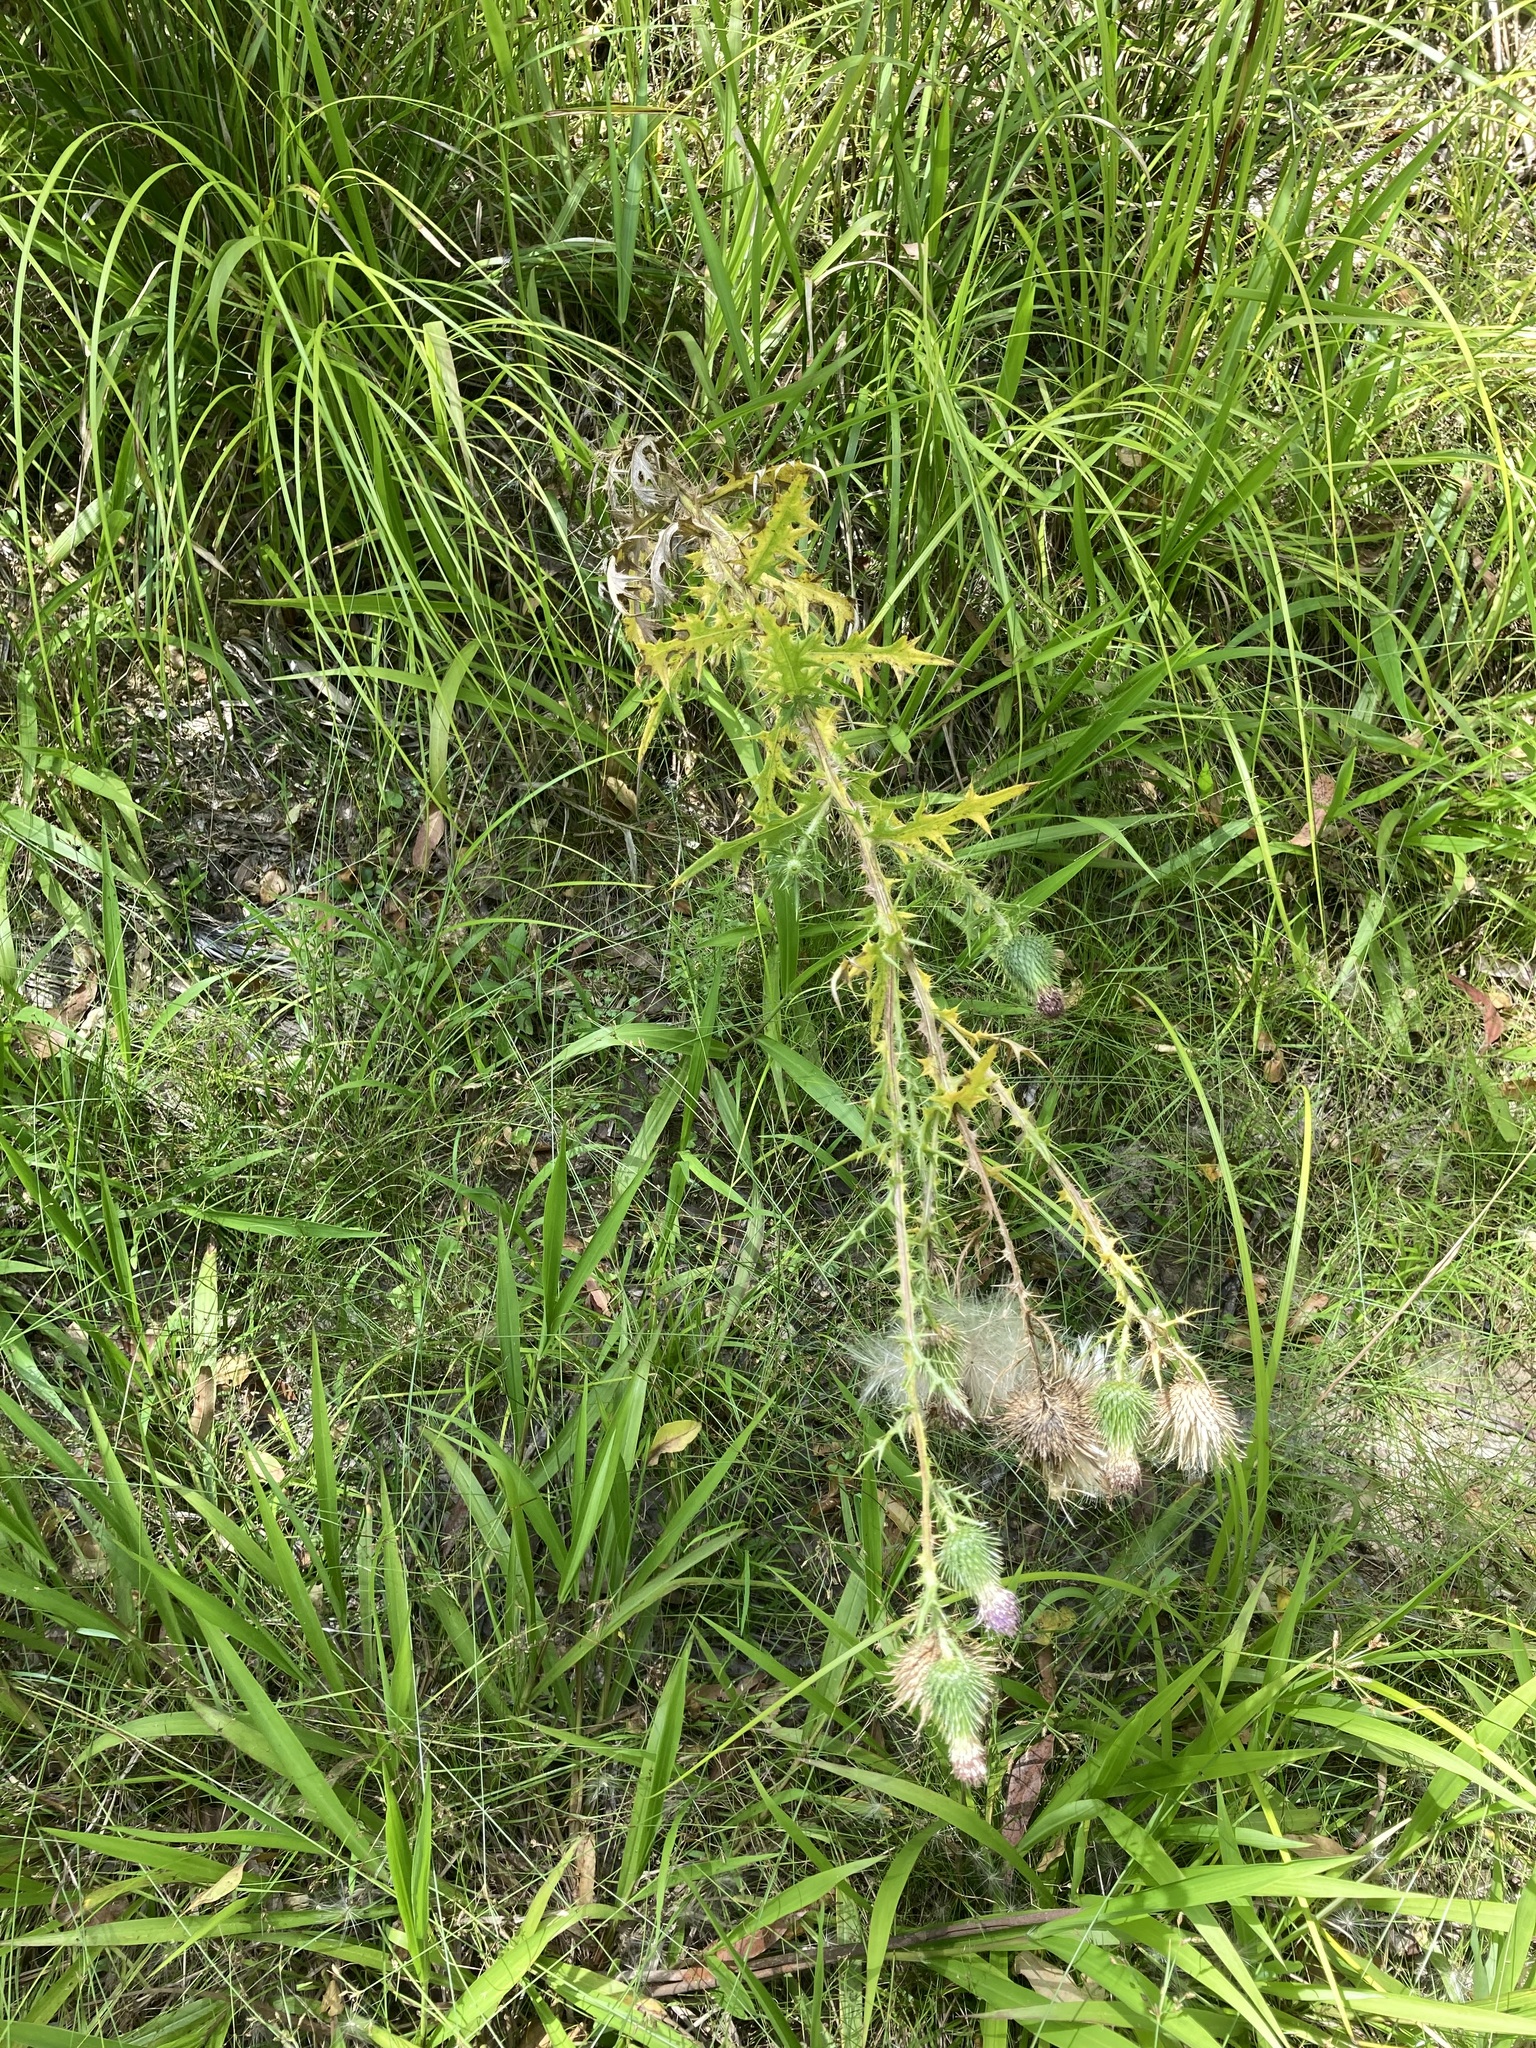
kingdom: Plantae
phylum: Tracheophyta
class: Magnoliopsida
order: Asterales
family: Asteraceae
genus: Cirsium
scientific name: Cirsium vulgare
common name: Bull thistle
